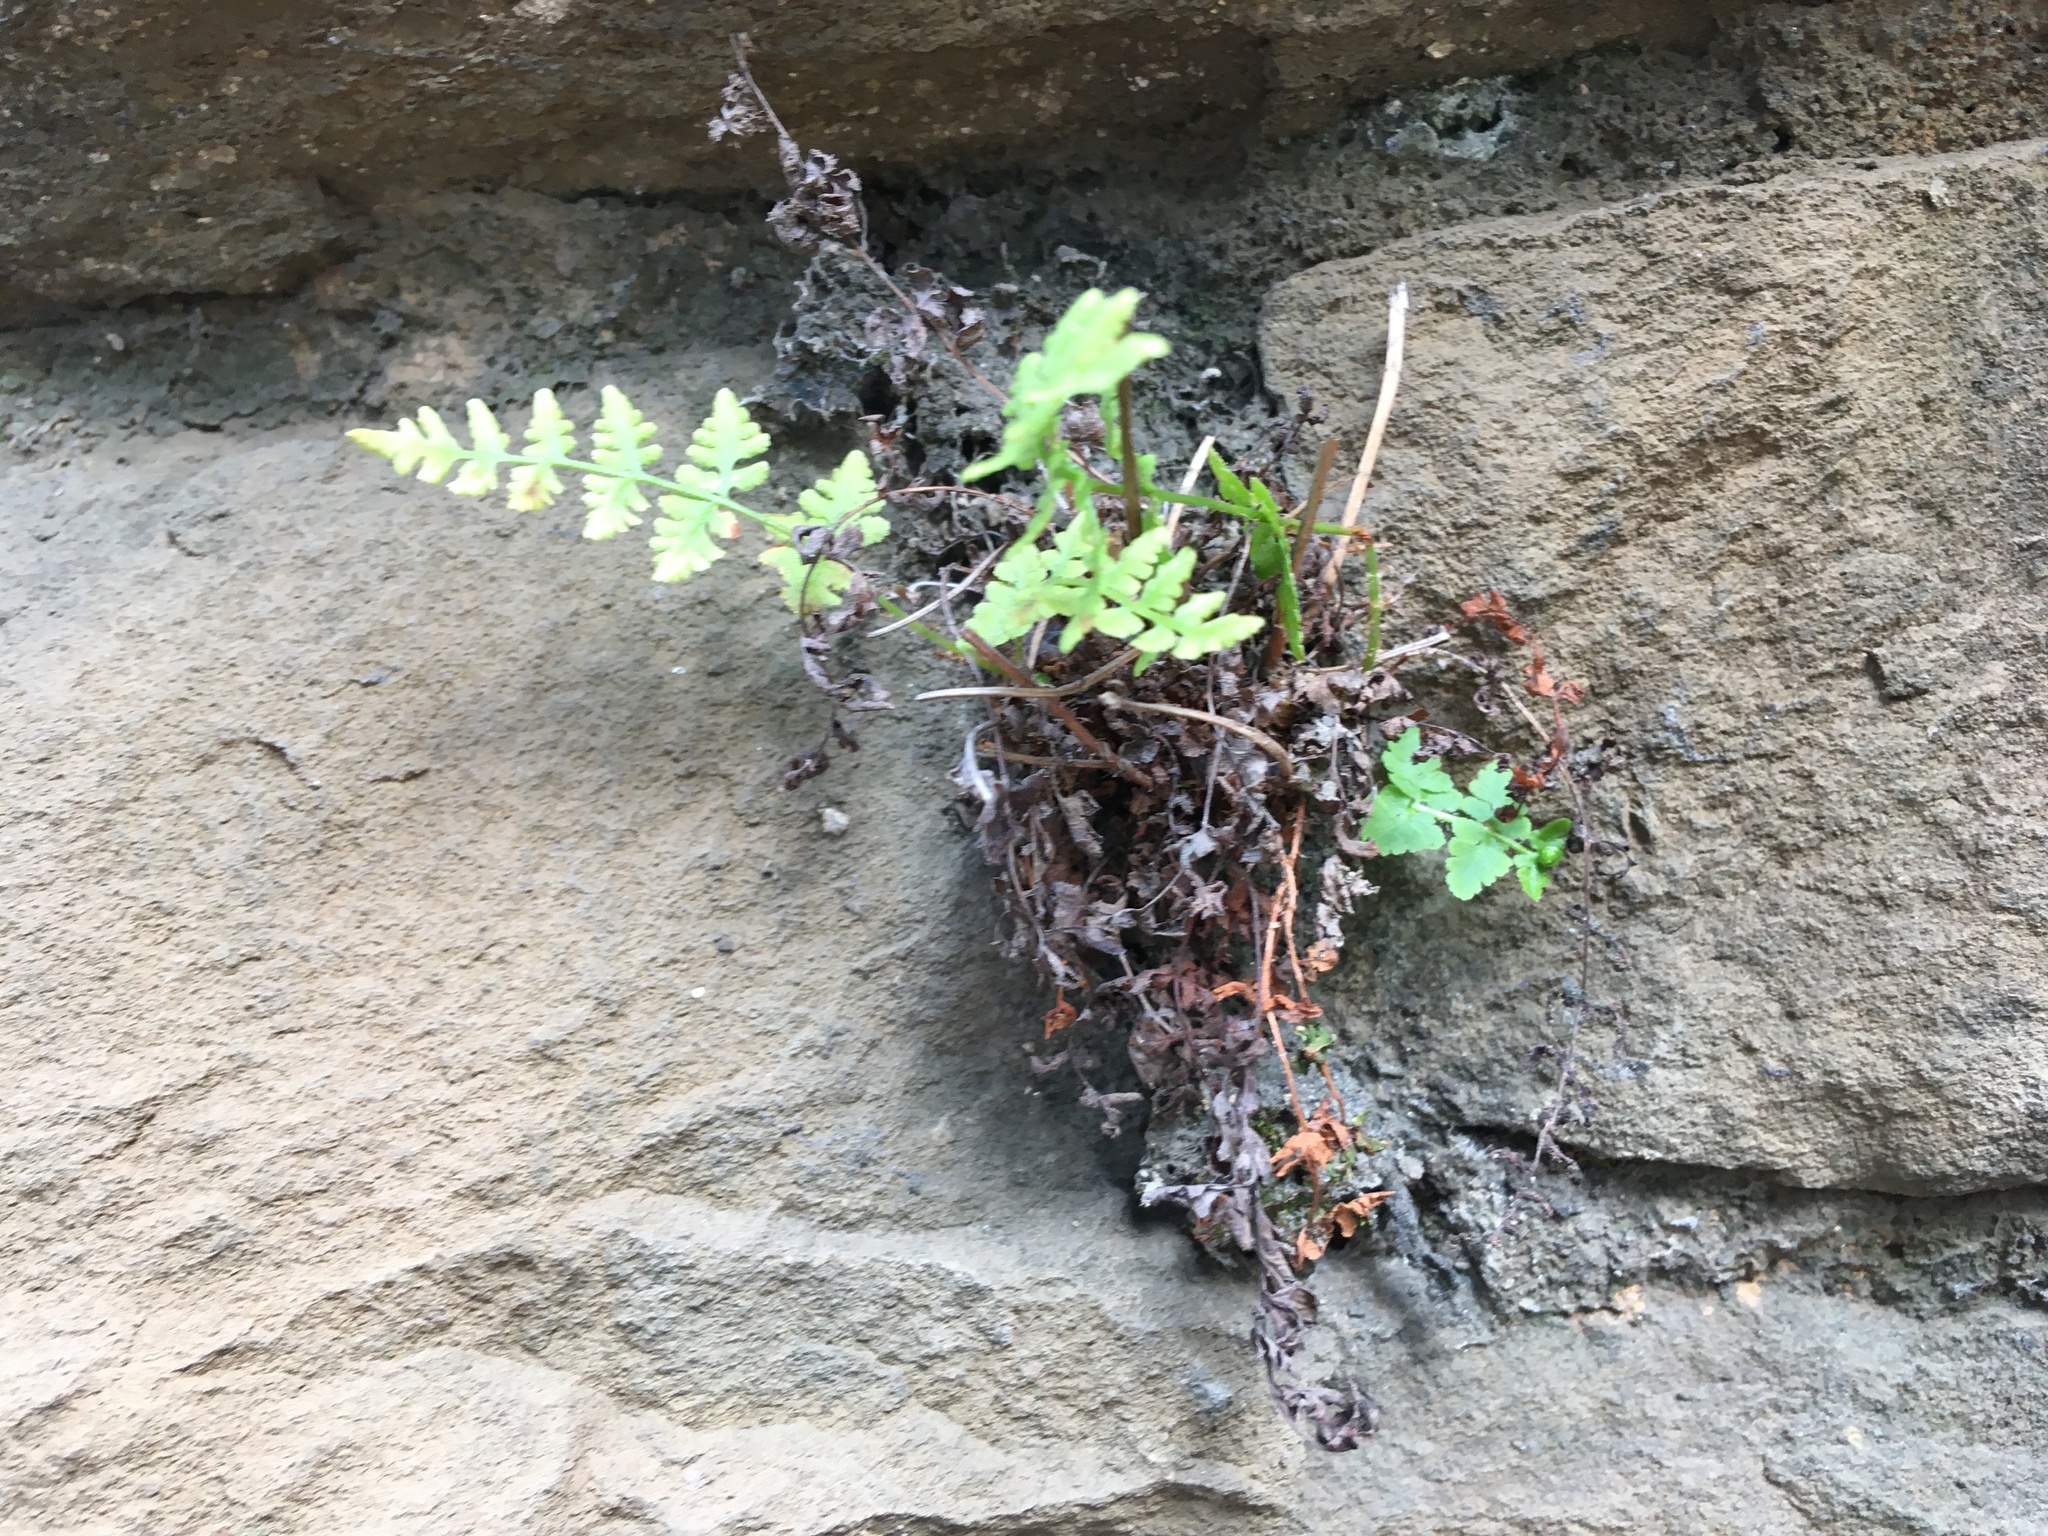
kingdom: Plantae
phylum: Tracheophyta
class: Polypodiopsida
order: Polypodiales
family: Woodsiaceae
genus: Physematium
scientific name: Physematium obtusum
